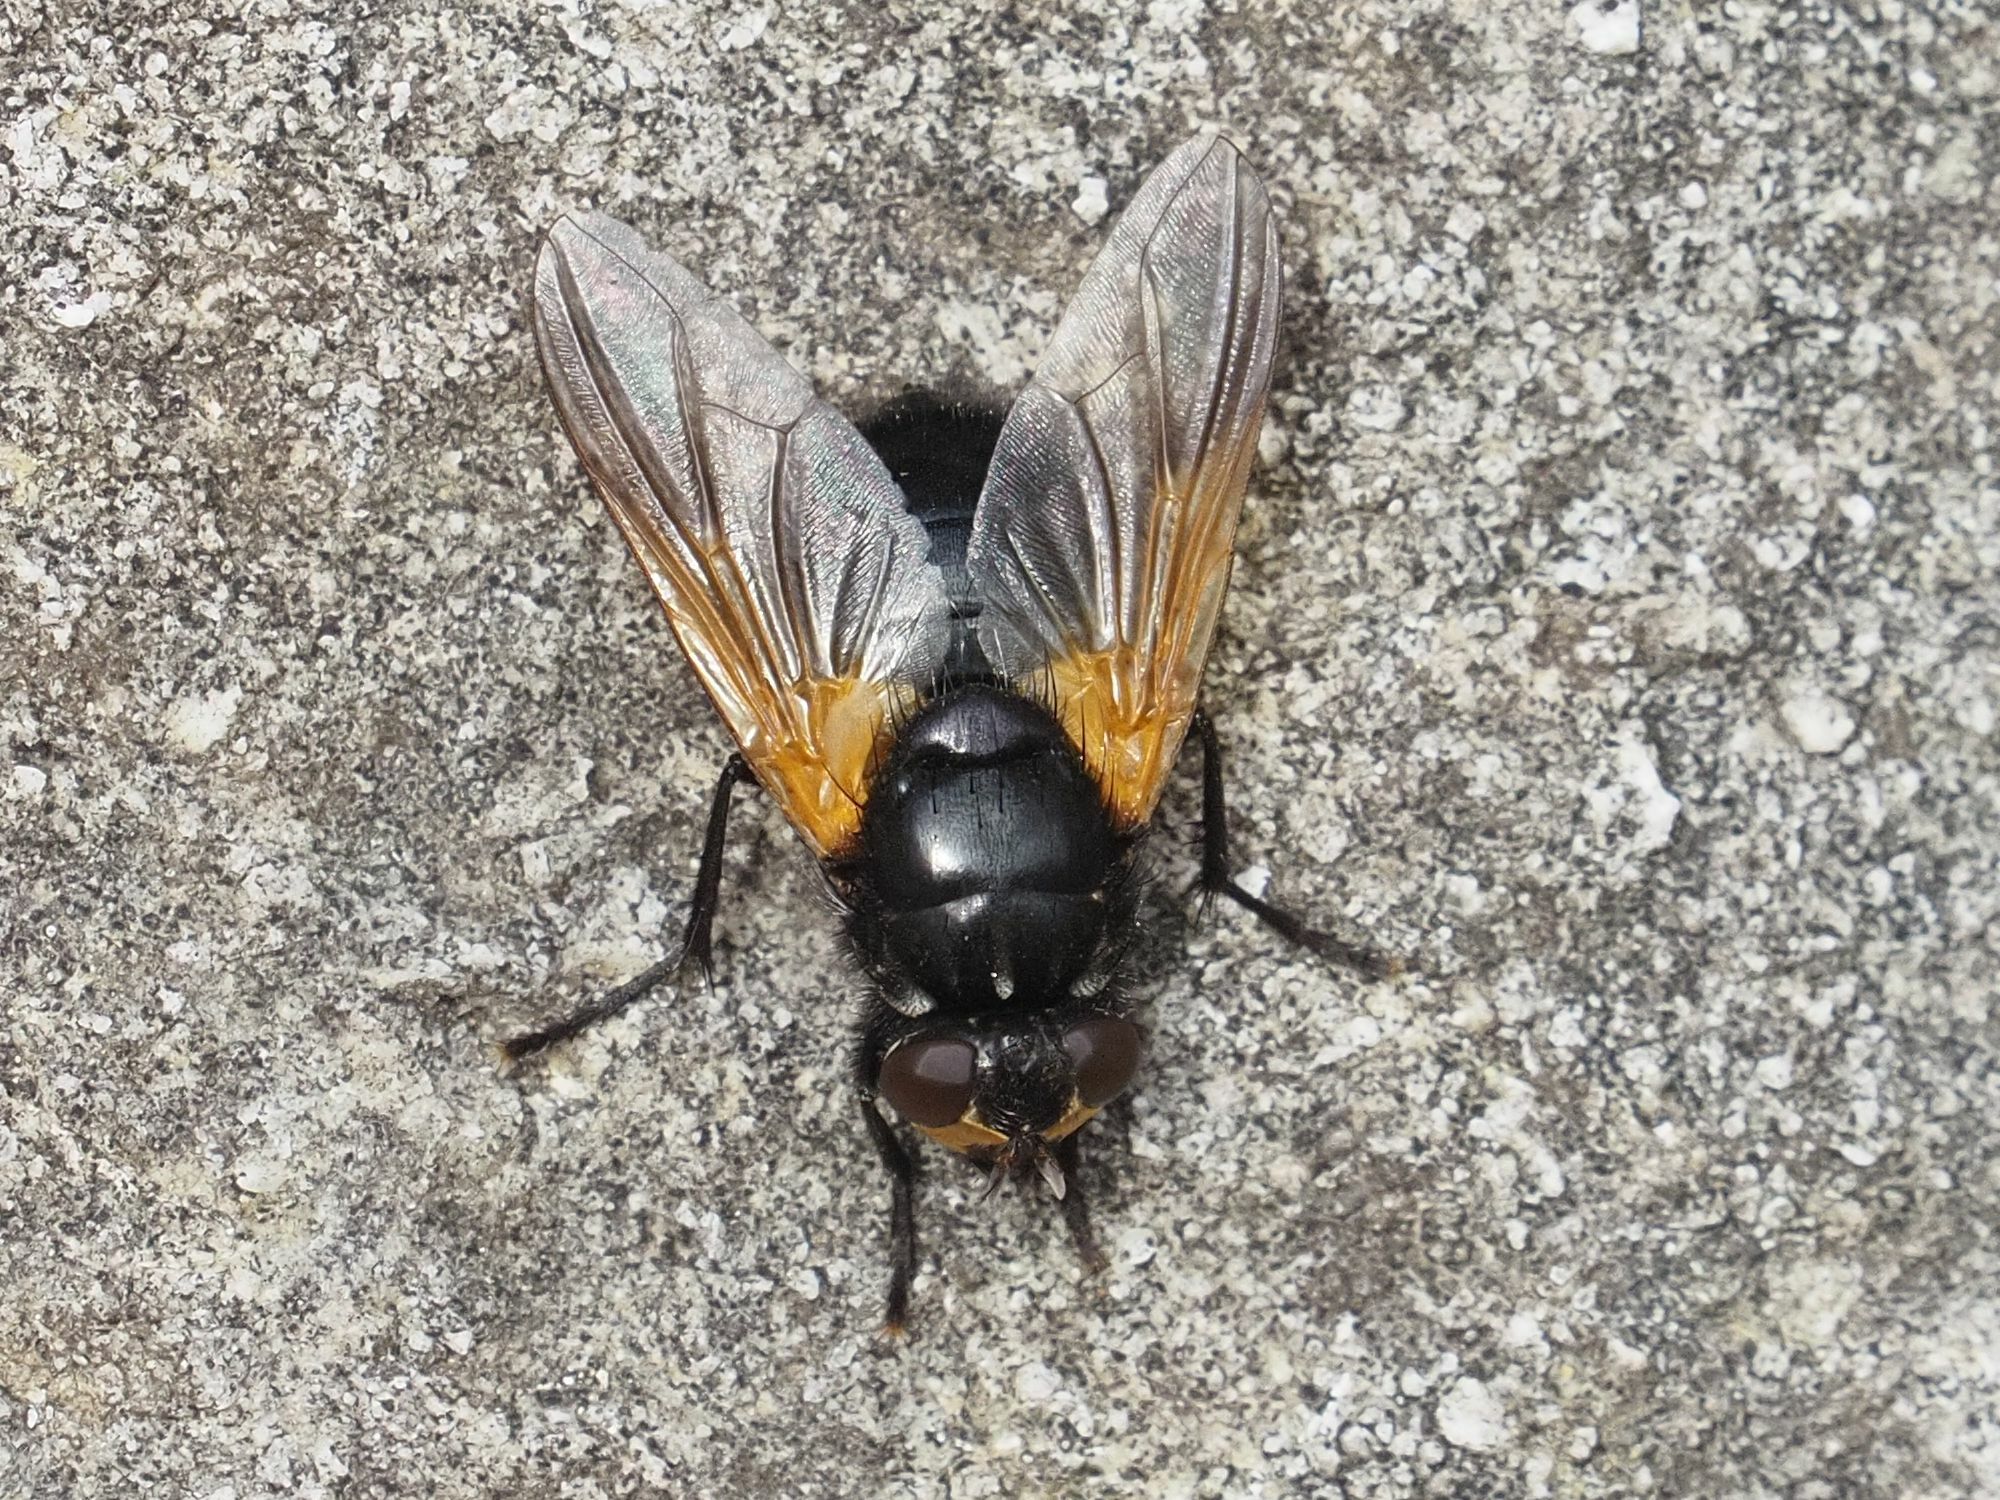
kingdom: Animalia
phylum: Arthropoda
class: Insecta
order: Diptera
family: Muscidae
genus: Mesembrina
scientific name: Mesembrina meridiana
